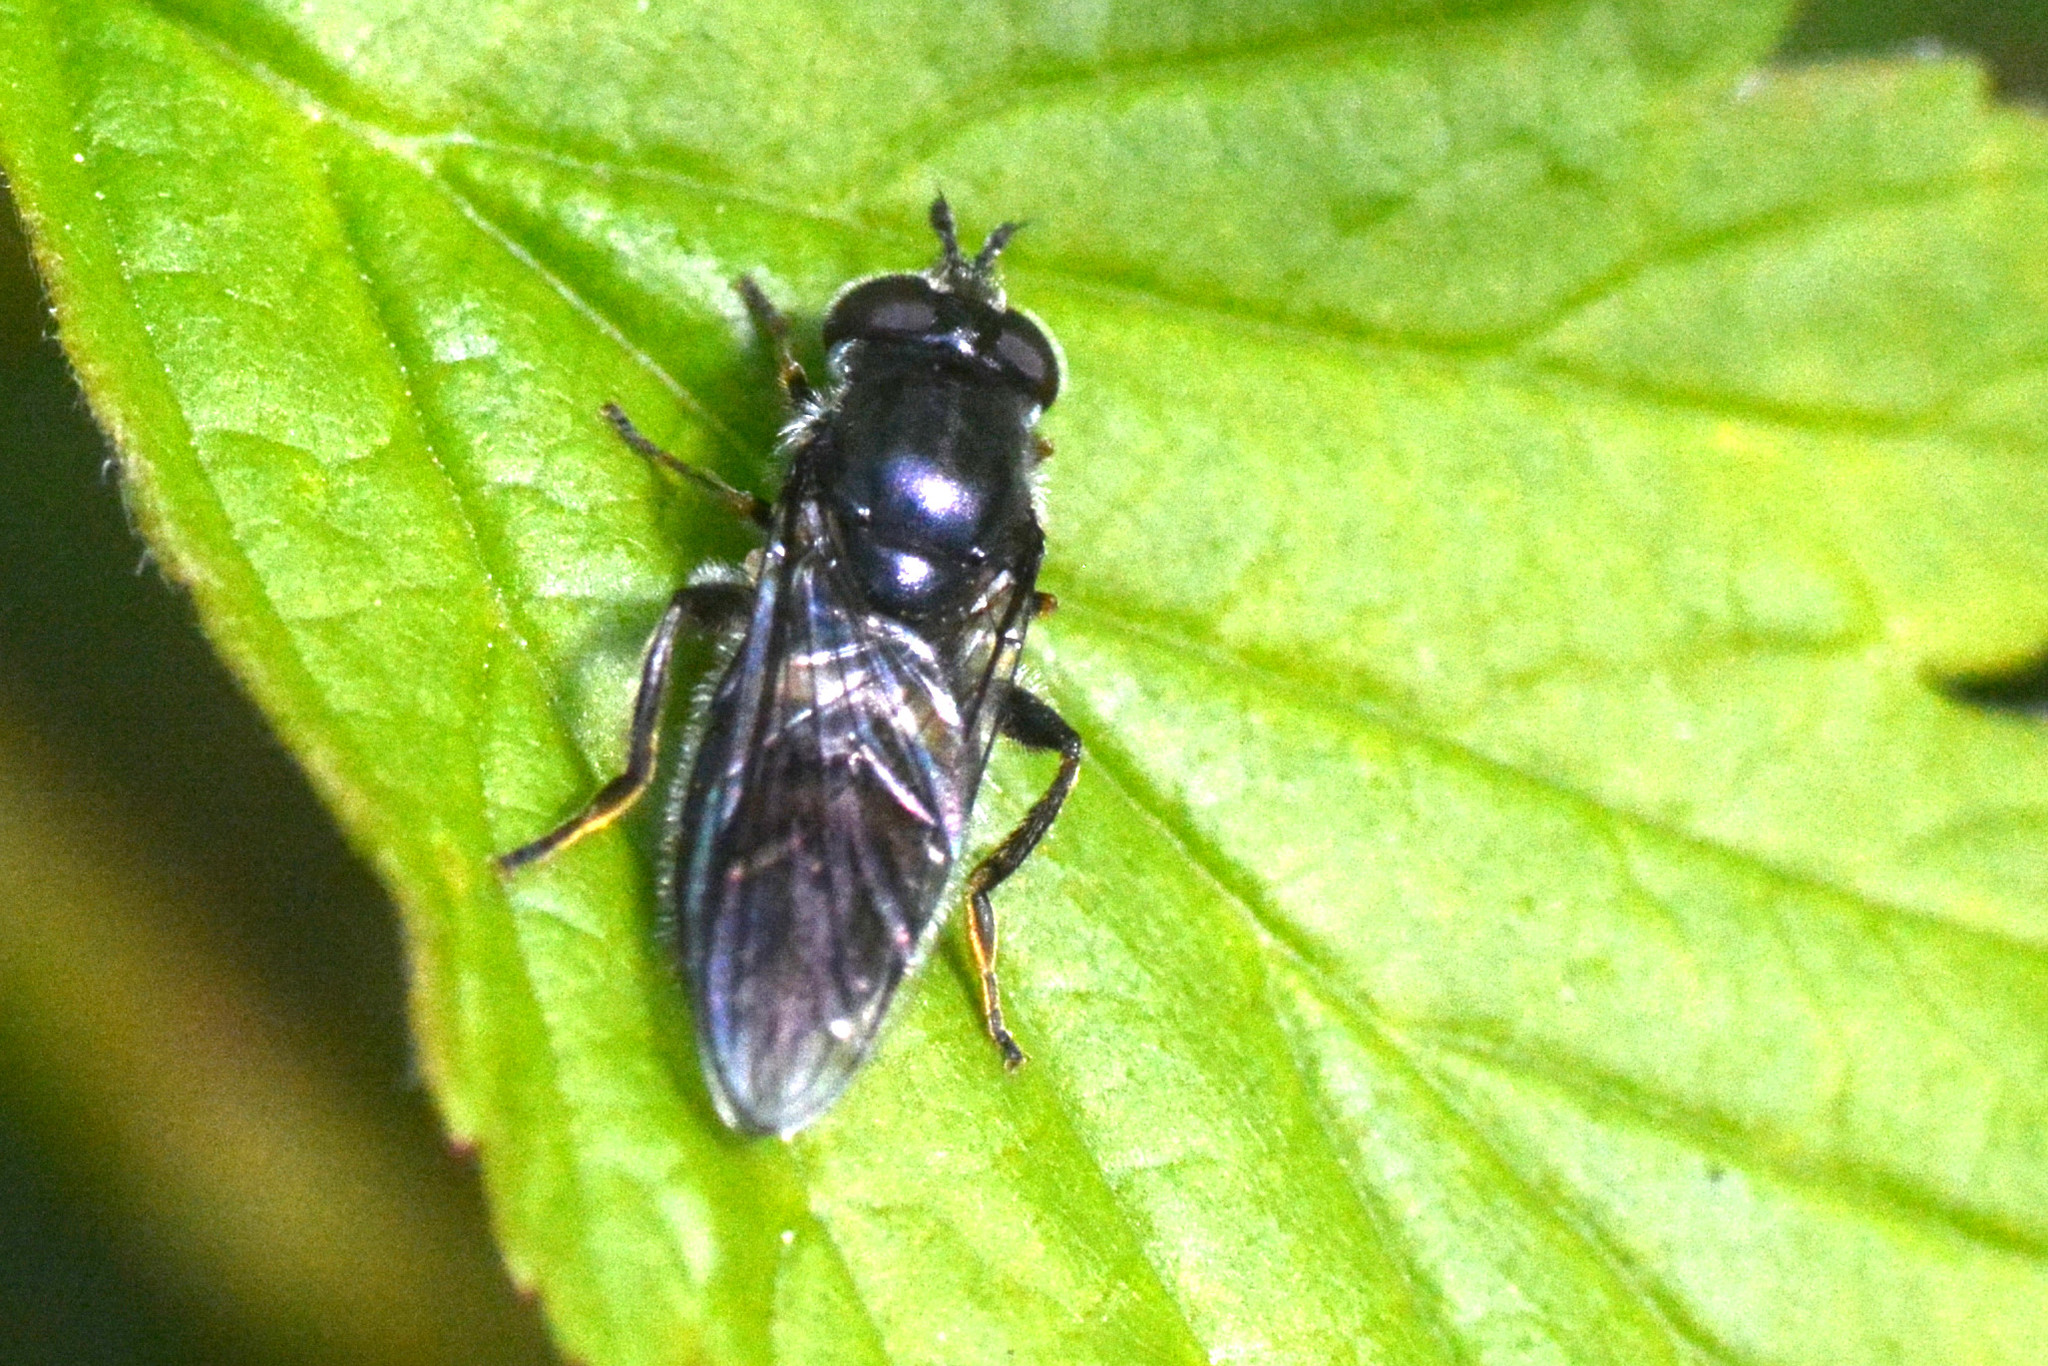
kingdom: Animalia
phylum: Arthropoda
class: Insecta
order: Diptera
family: Syrphidae
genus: Pipiza
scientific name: Pipiza noctiluca
